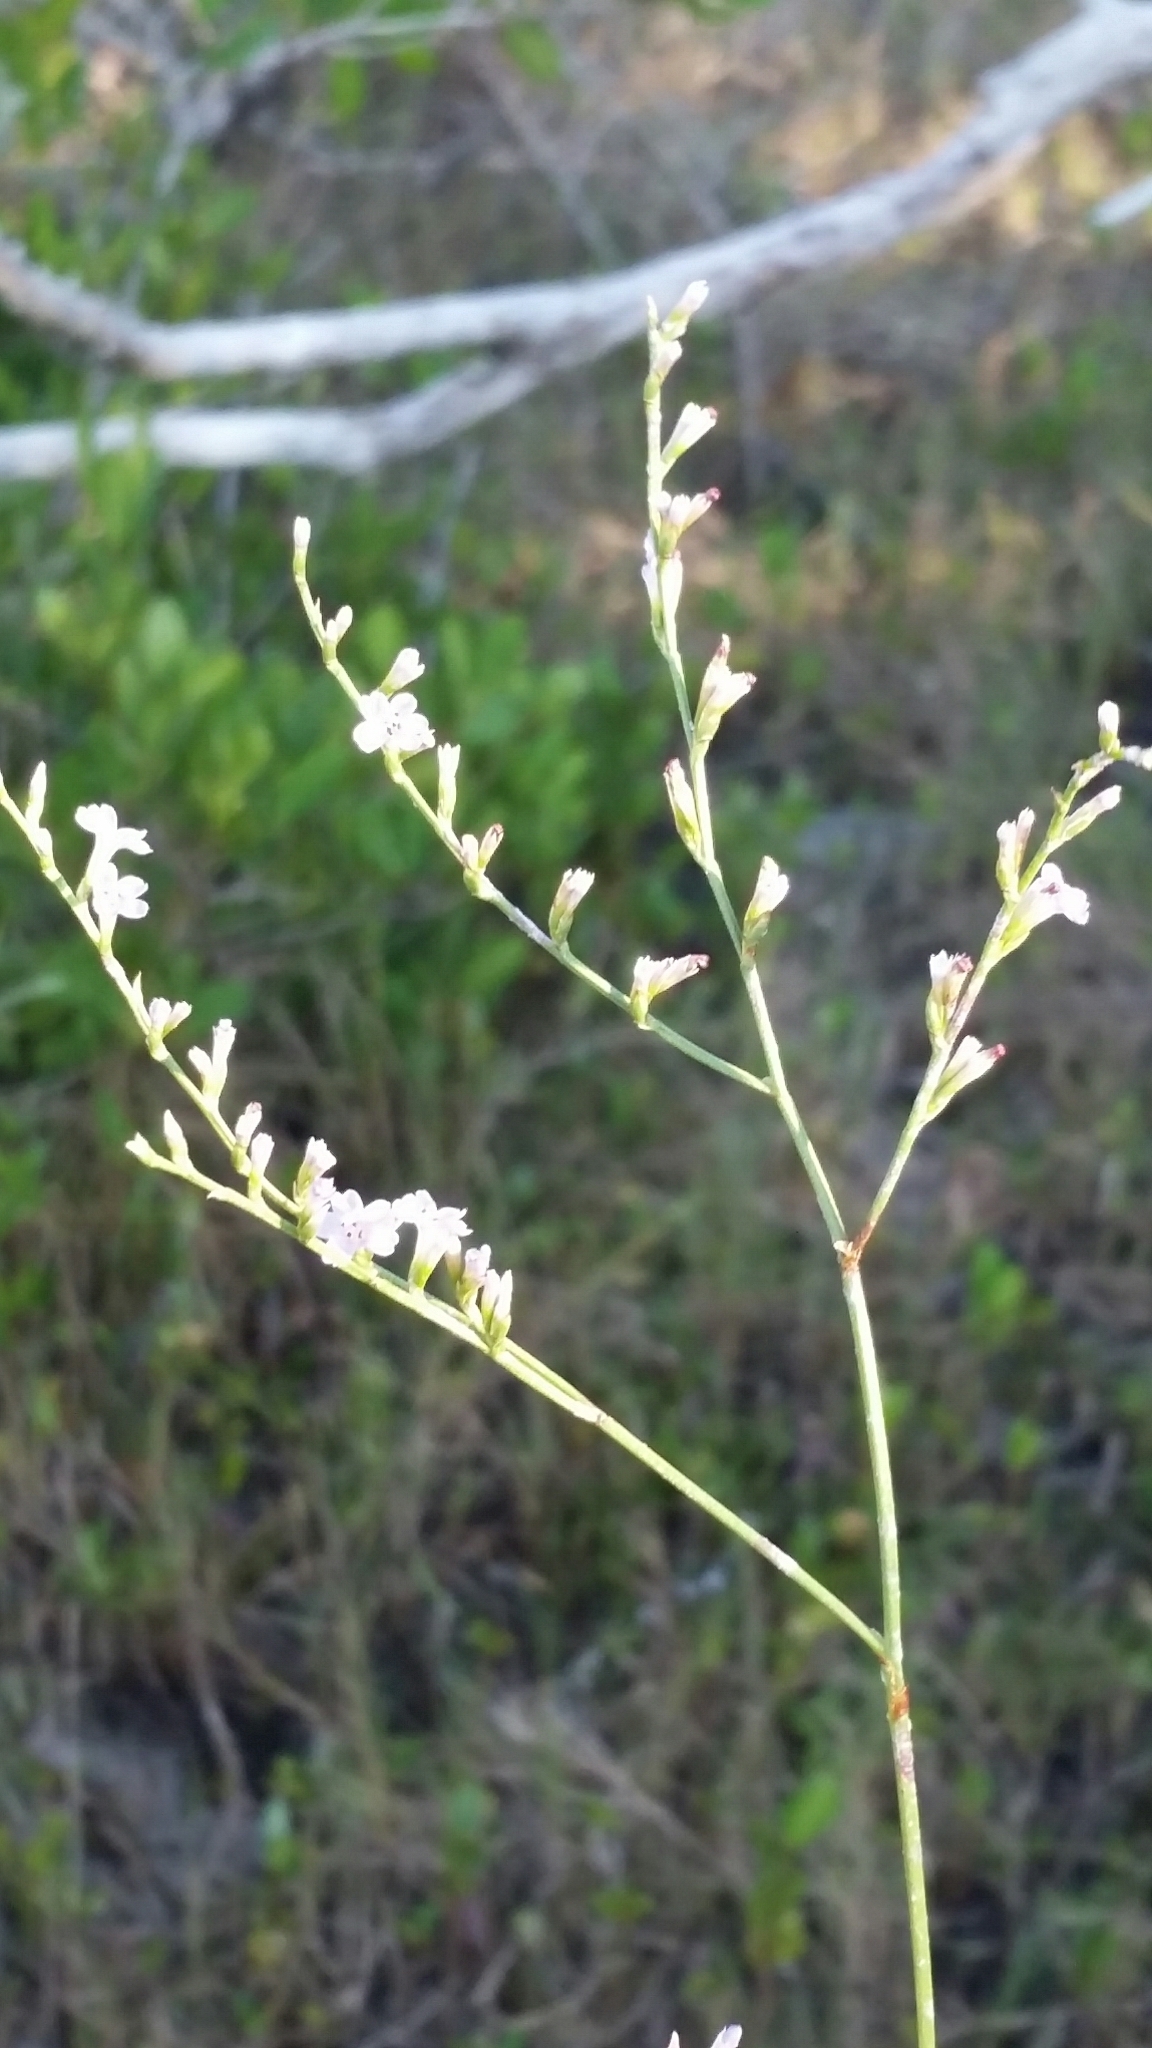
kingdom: Plantae
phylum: Tracheophyta
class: Magnoliopsida
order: Caryophyllales
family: Plumbaginaceae
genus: Limonium
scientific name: Limonium carolinianum
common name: Carolina sea lavender
